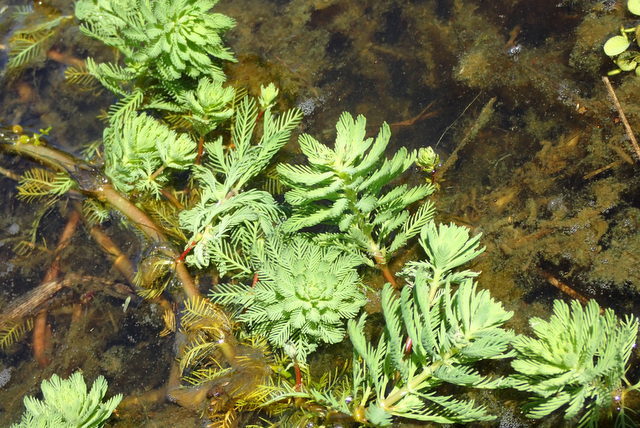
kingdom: Plantae
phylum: Tracheophyta
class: Magnoliopsida
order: Saxifragales
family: Haloragaceae
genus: Myriophyllum
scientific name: Myriophyllum aquaticum
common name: Parrot's feather
